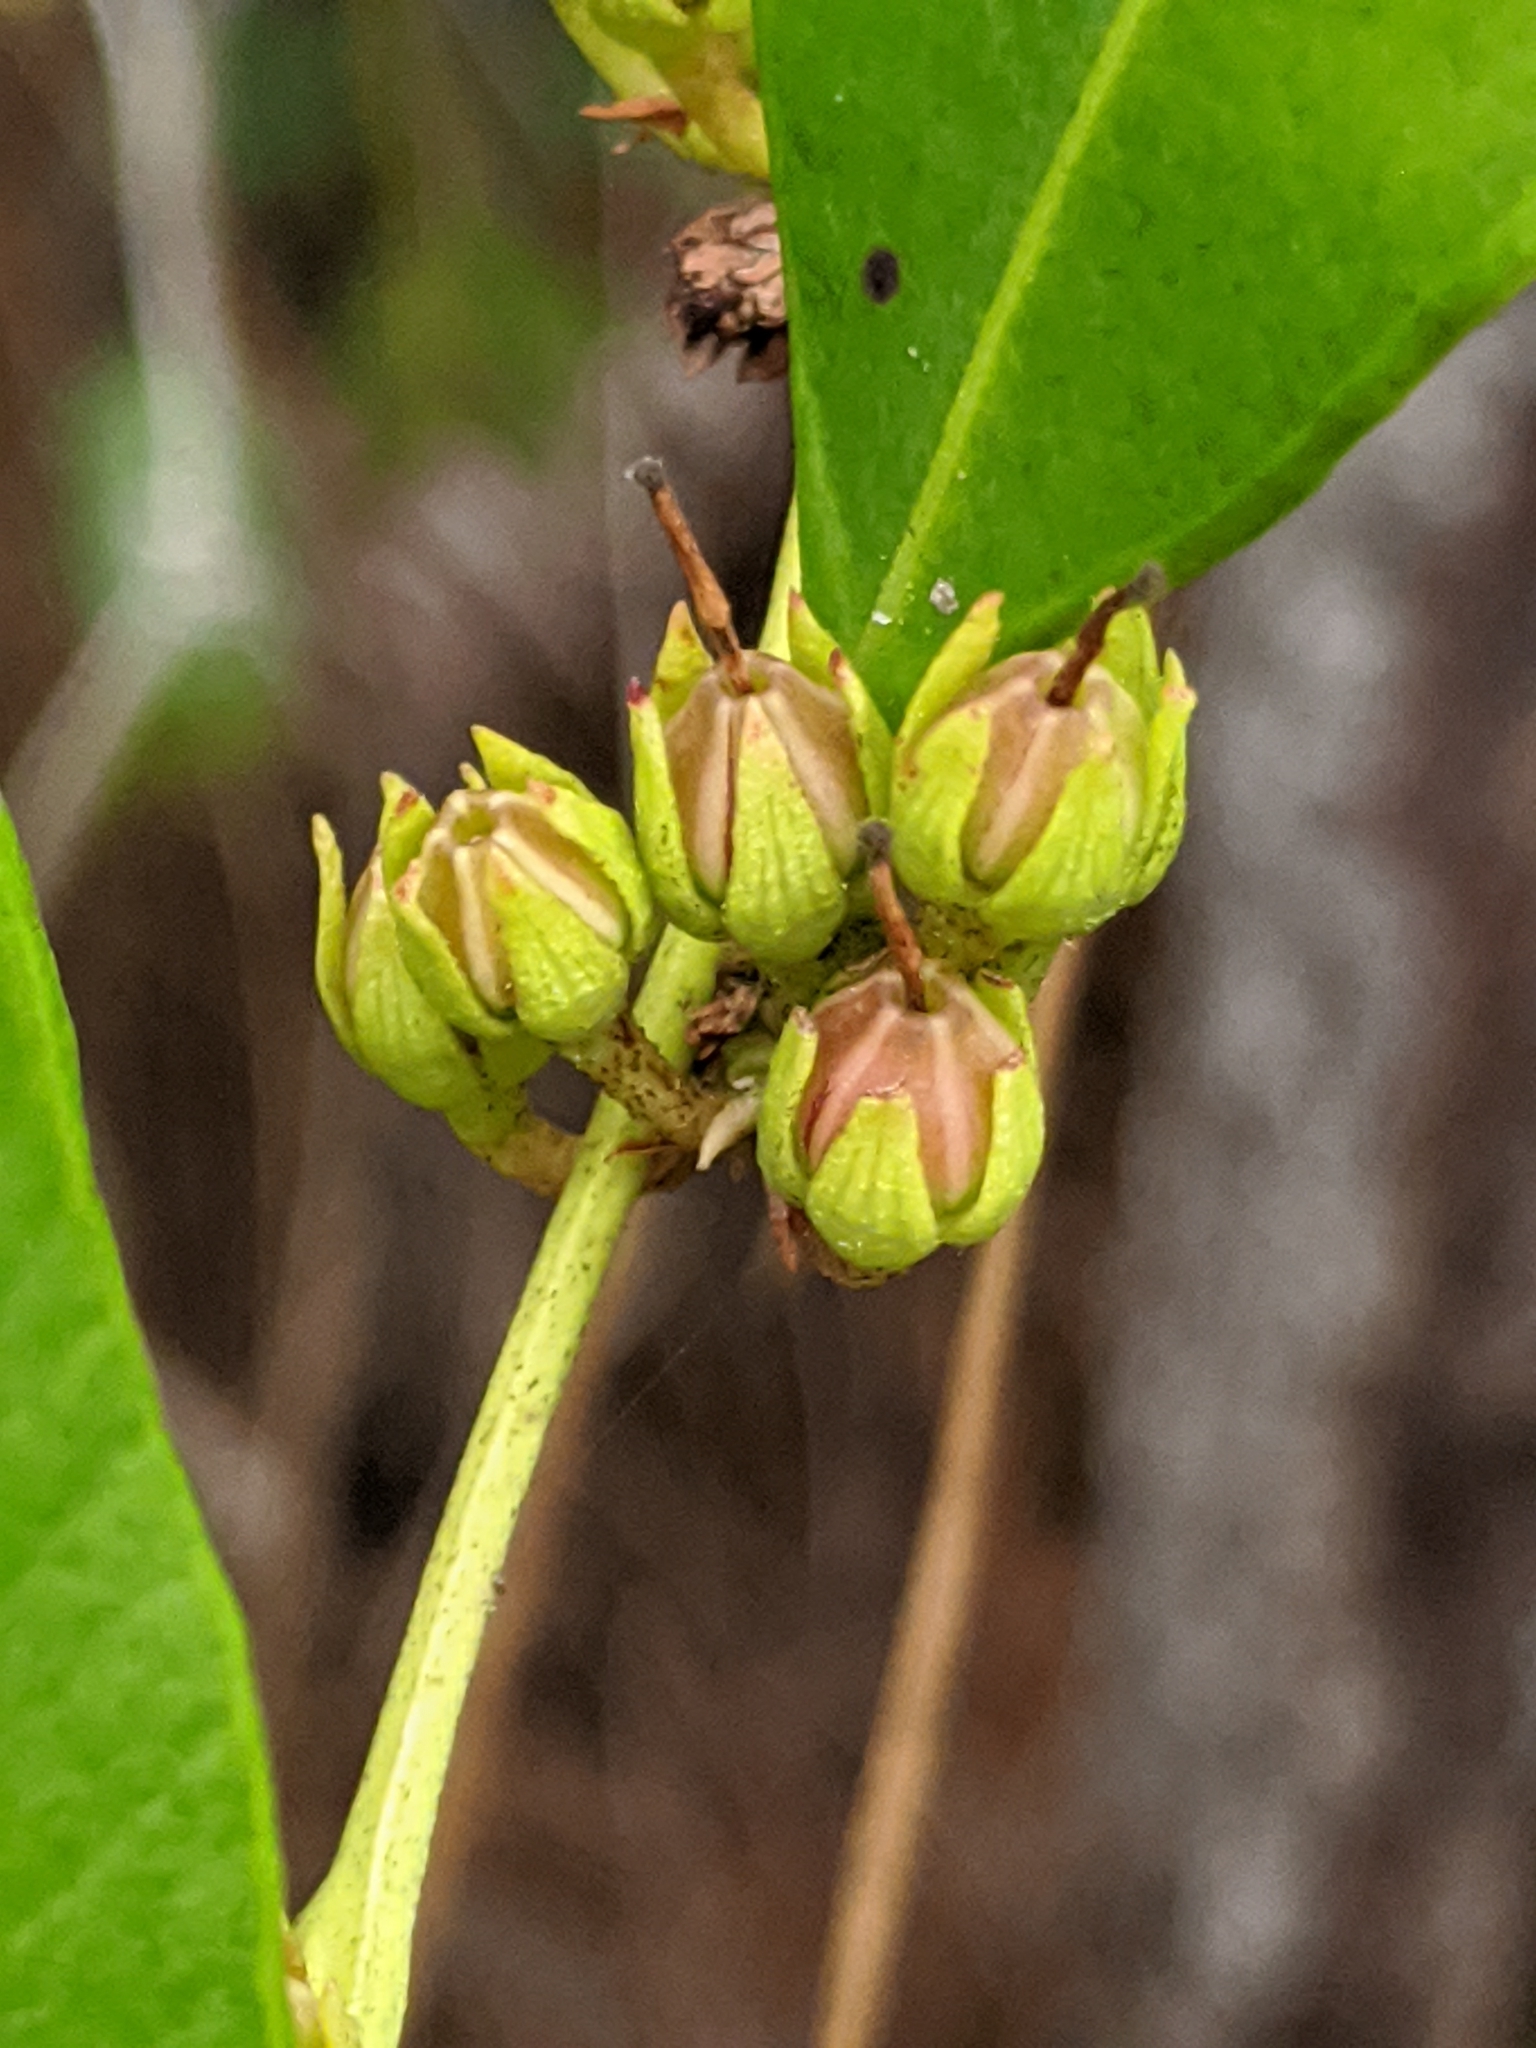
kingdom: Plantae
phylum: Tracheophyta
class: Magnoliopsida
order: Ericales
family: Ericaceae
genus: Lyonia
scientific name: Lyonia lucida
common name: Fetterbush
